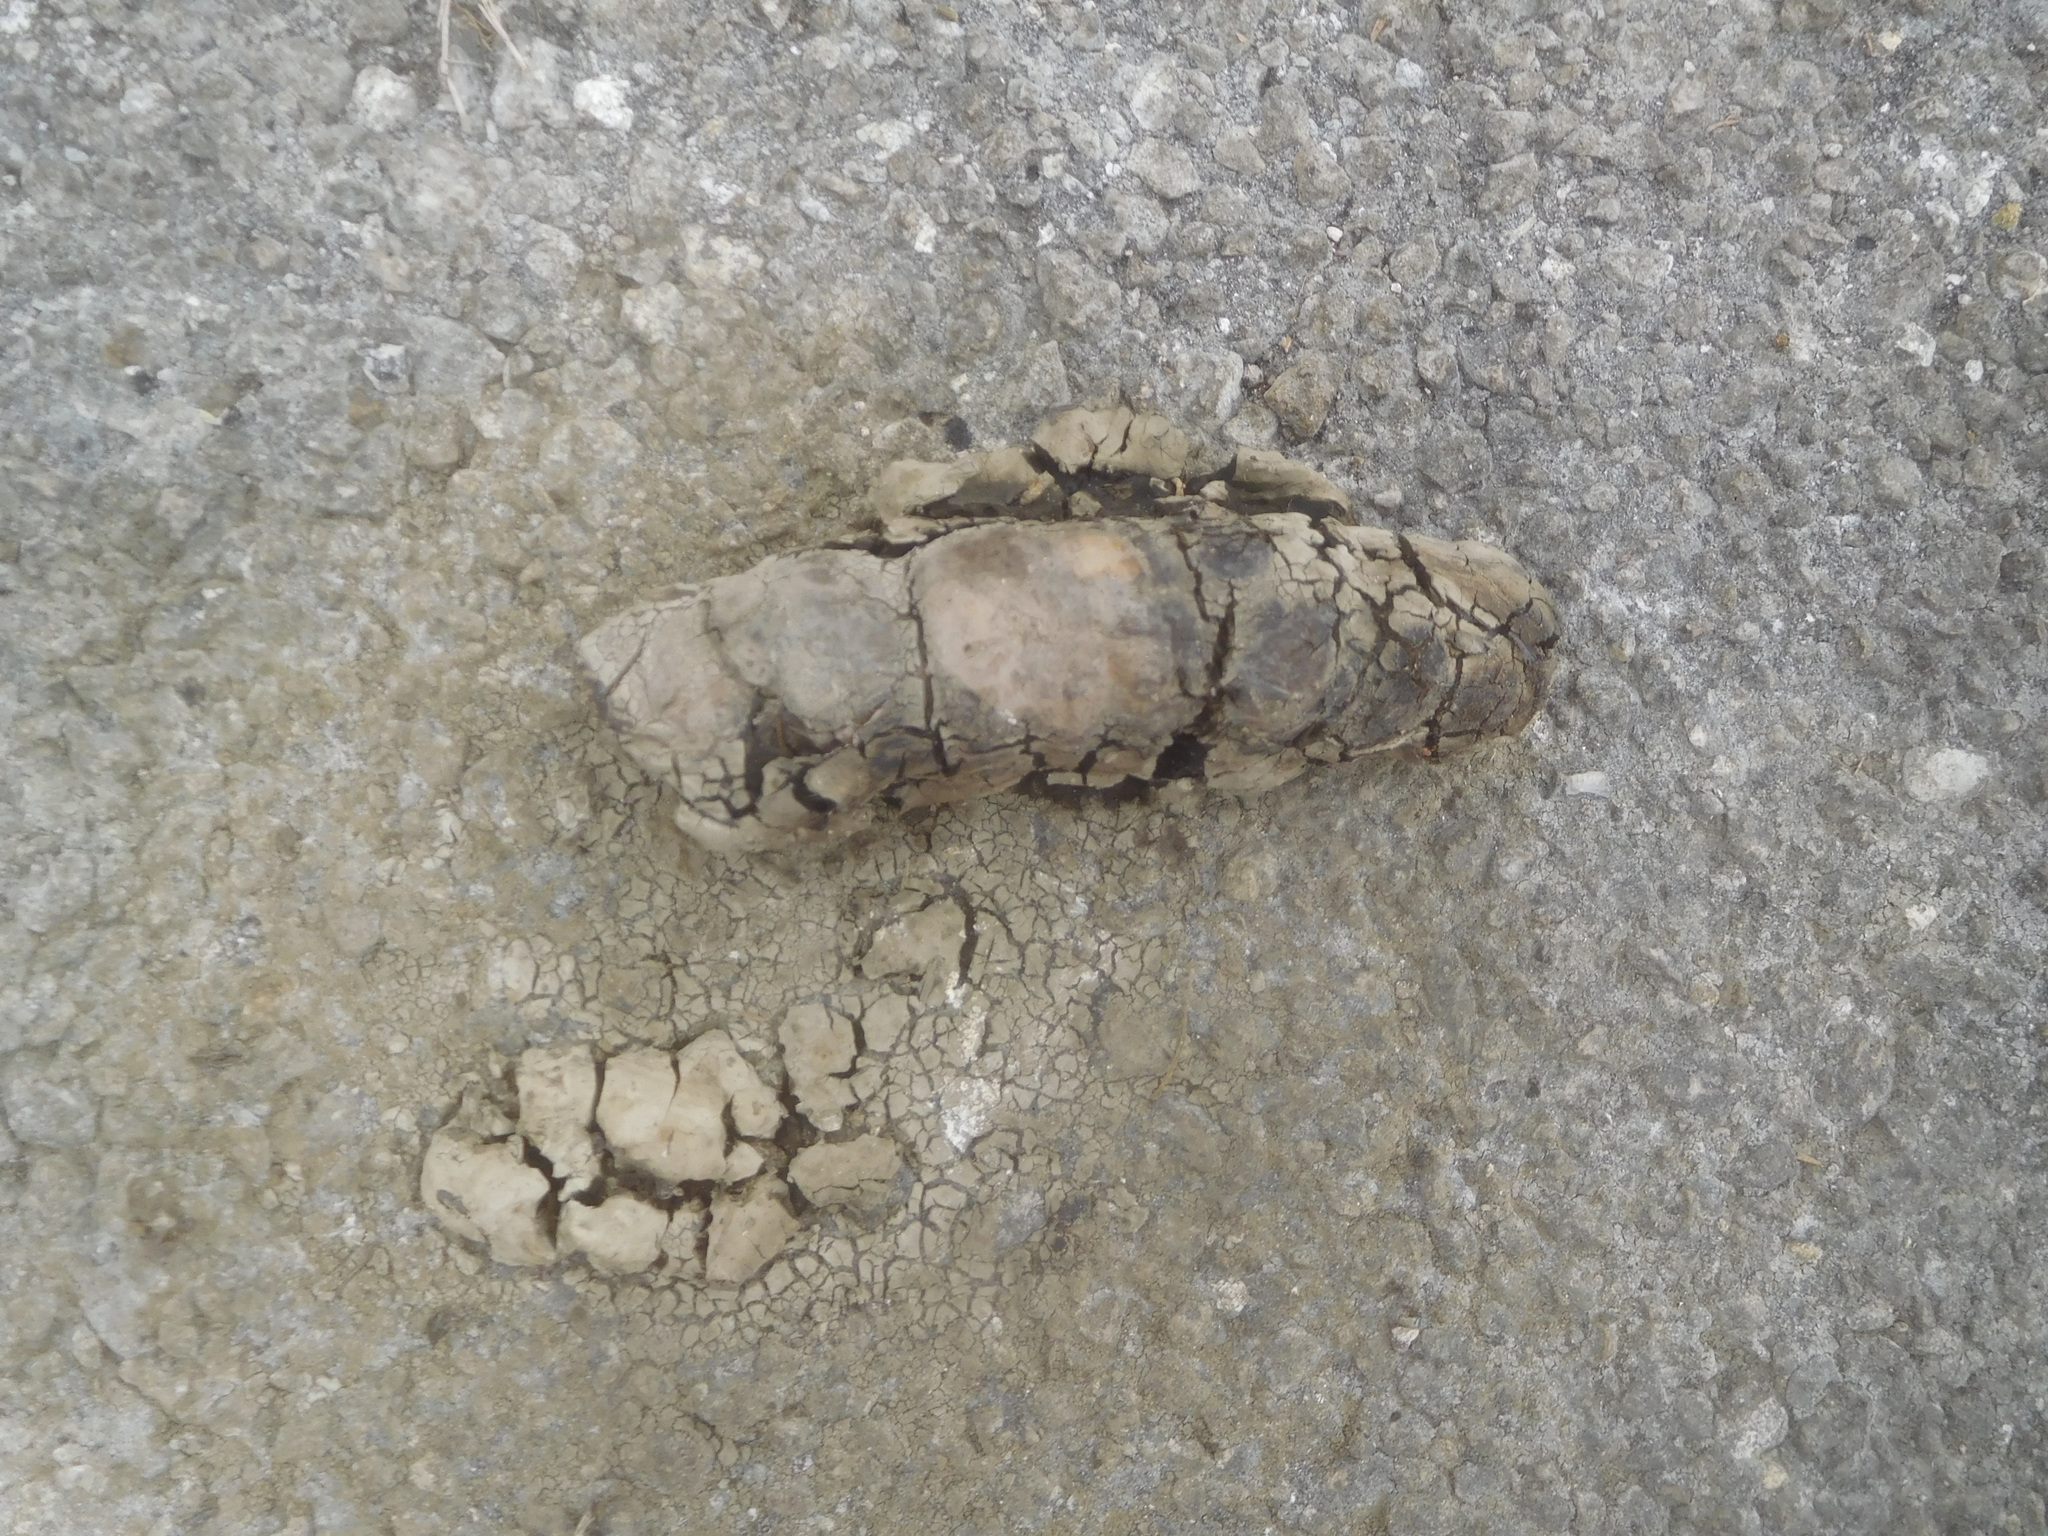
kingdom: Animalia
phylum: Chordata
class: Crocodylia
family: Alligatoridae
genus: Alligator
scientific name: Alligator mississippiensis
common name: American alligator
